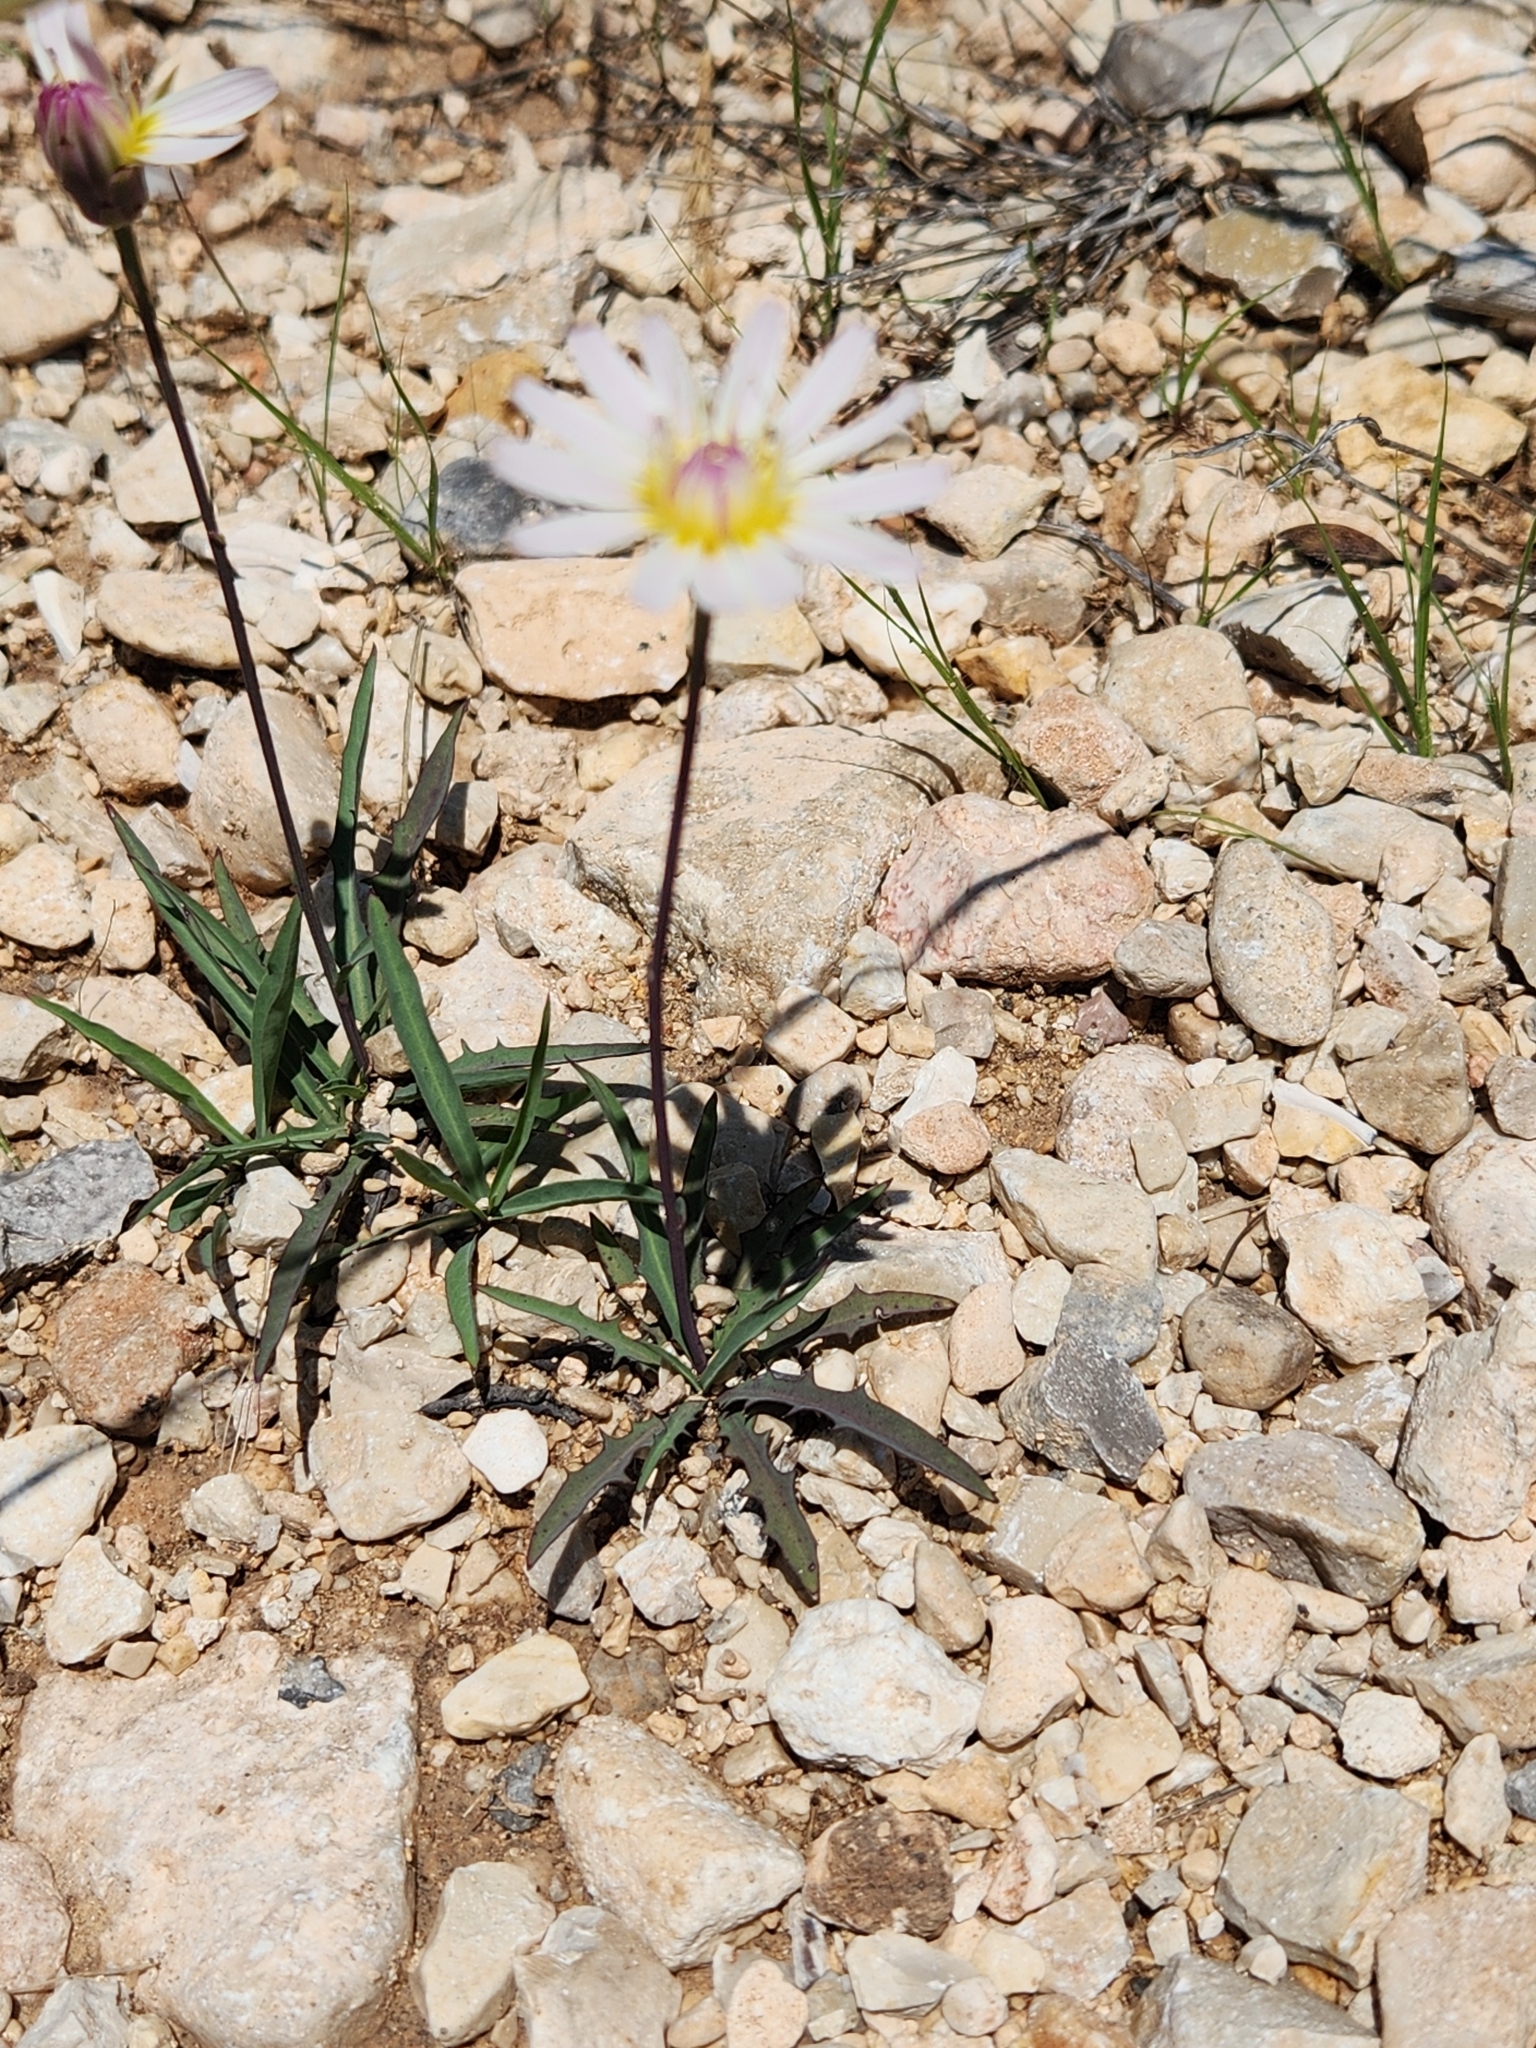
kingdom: Plantae
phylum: Tracheophyta
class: Magnoliopsida
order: Asterales
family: Asteraceae
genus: Pinaropappus
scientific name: Pinaropappus roseus
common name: Rock-lettuce
